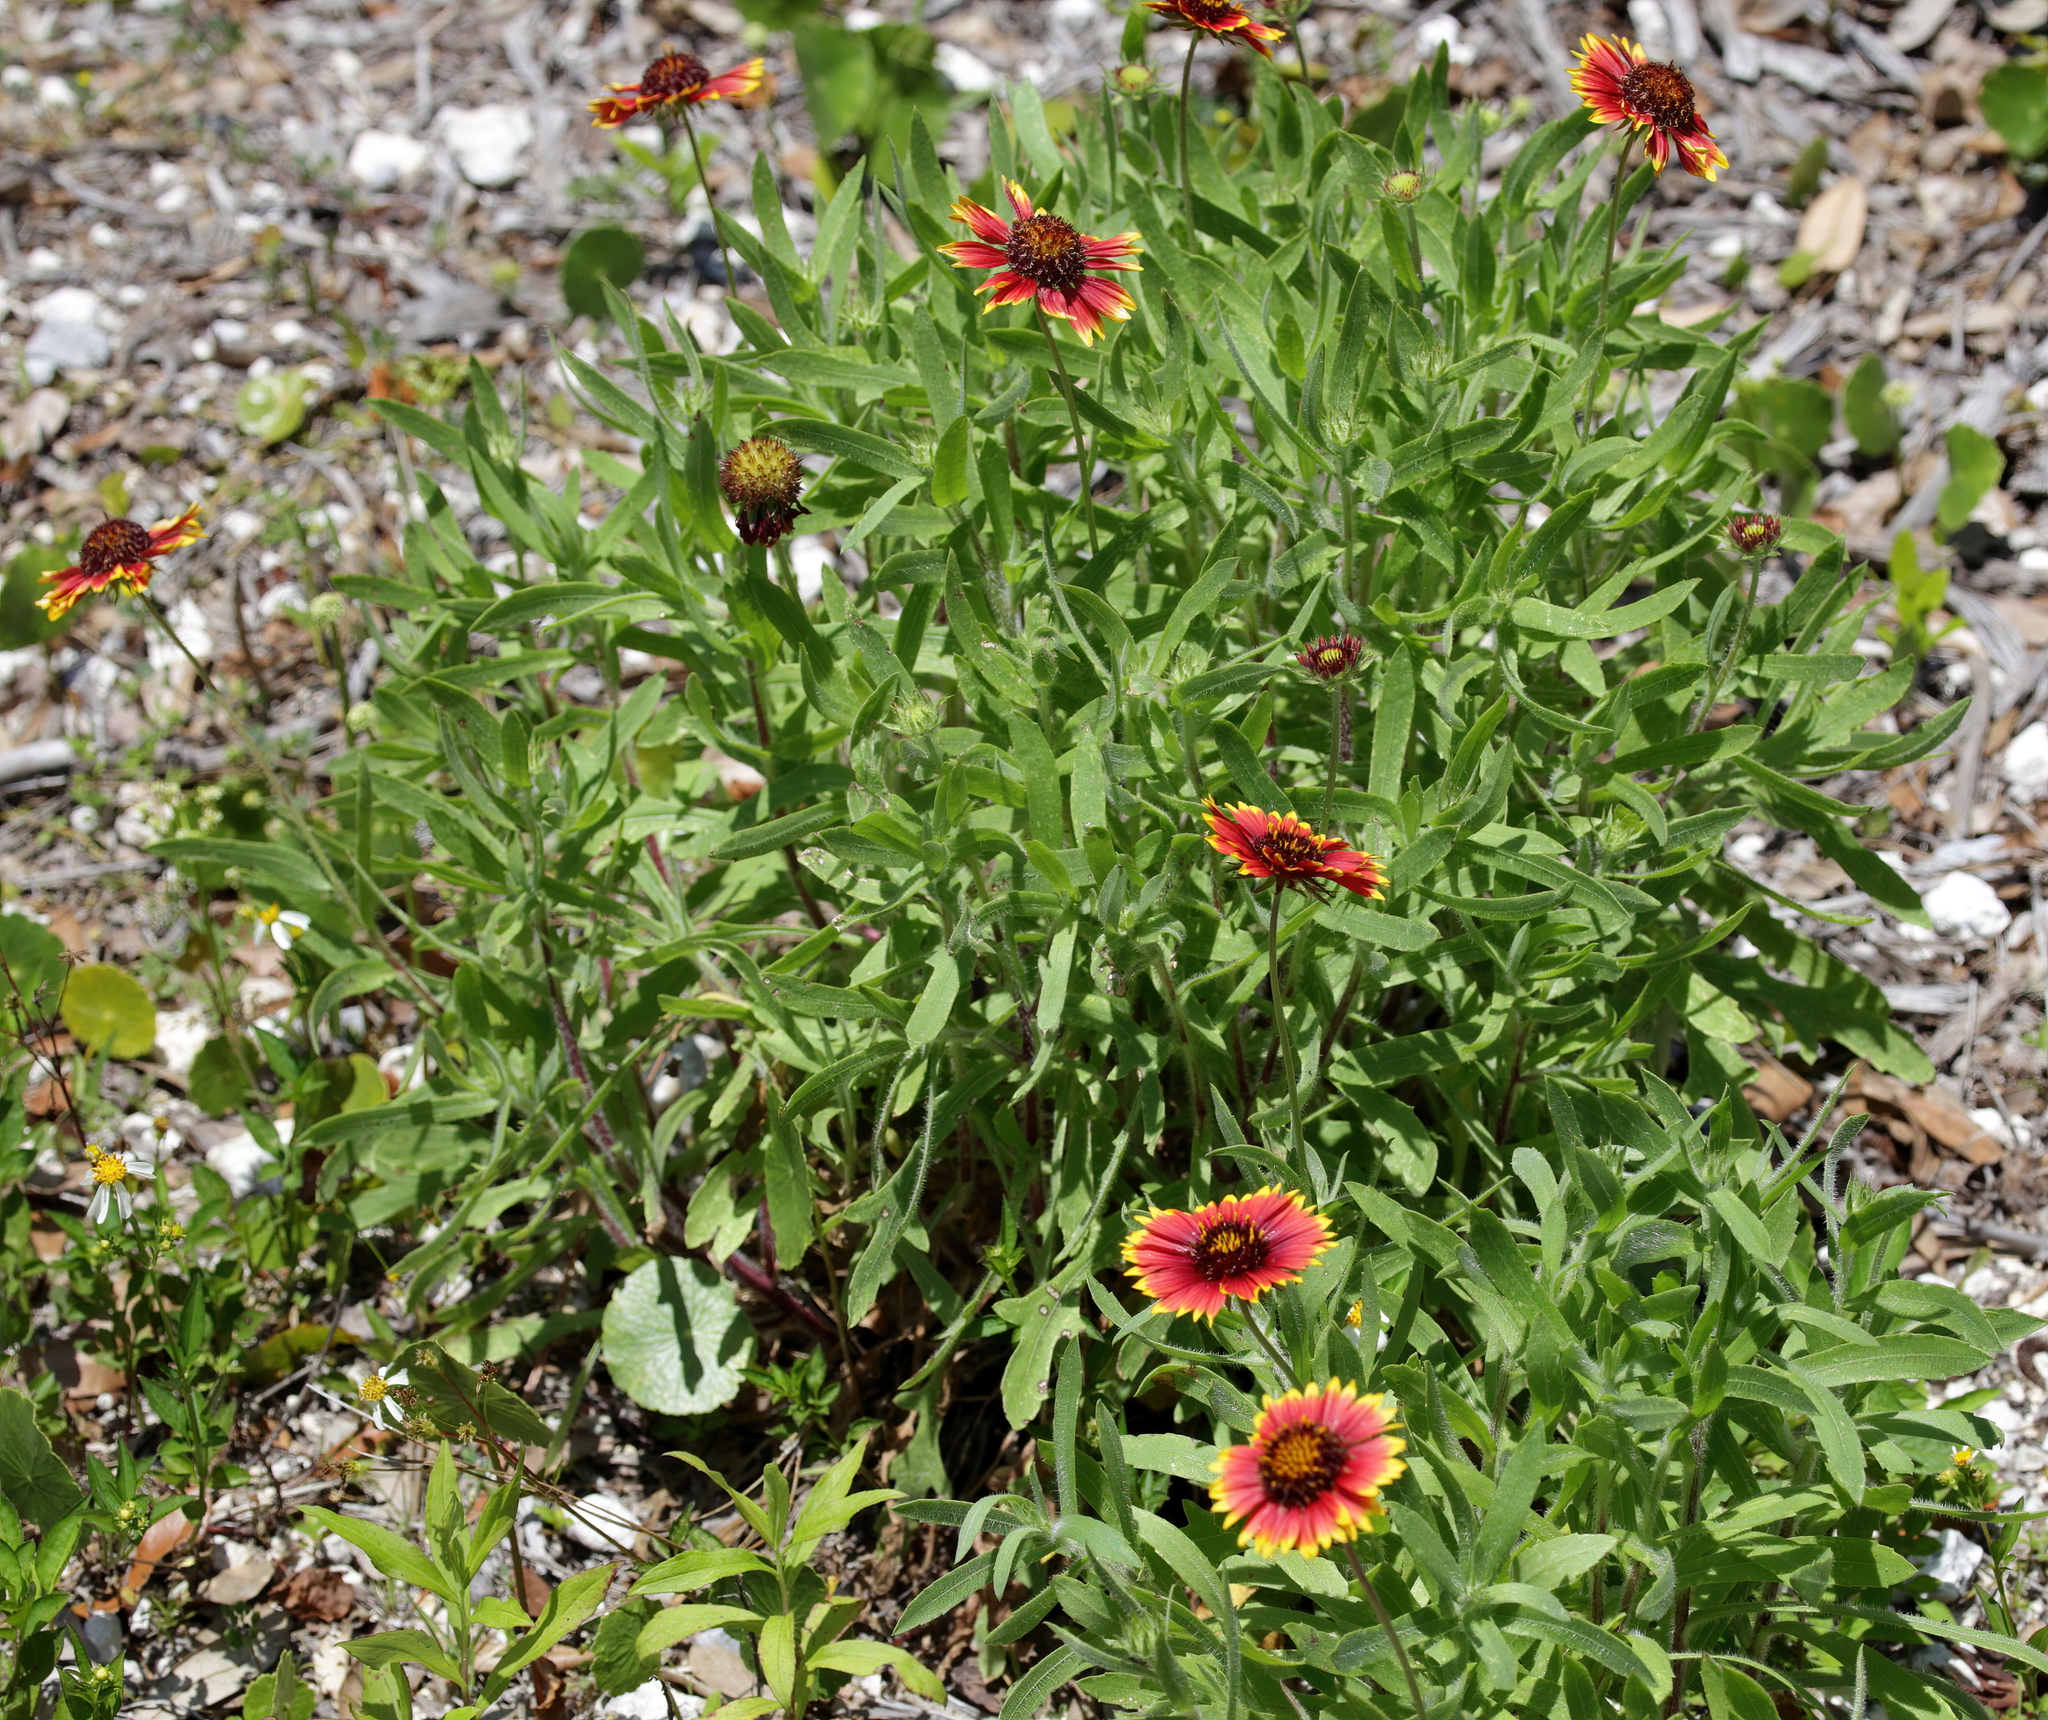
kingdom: Plantae
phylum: Tracheophyta
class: Magnoliopsida
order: Asterales
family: Asteraceae
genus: Gaillardia
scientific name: Gaillardia pulchella
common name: Firewheel
